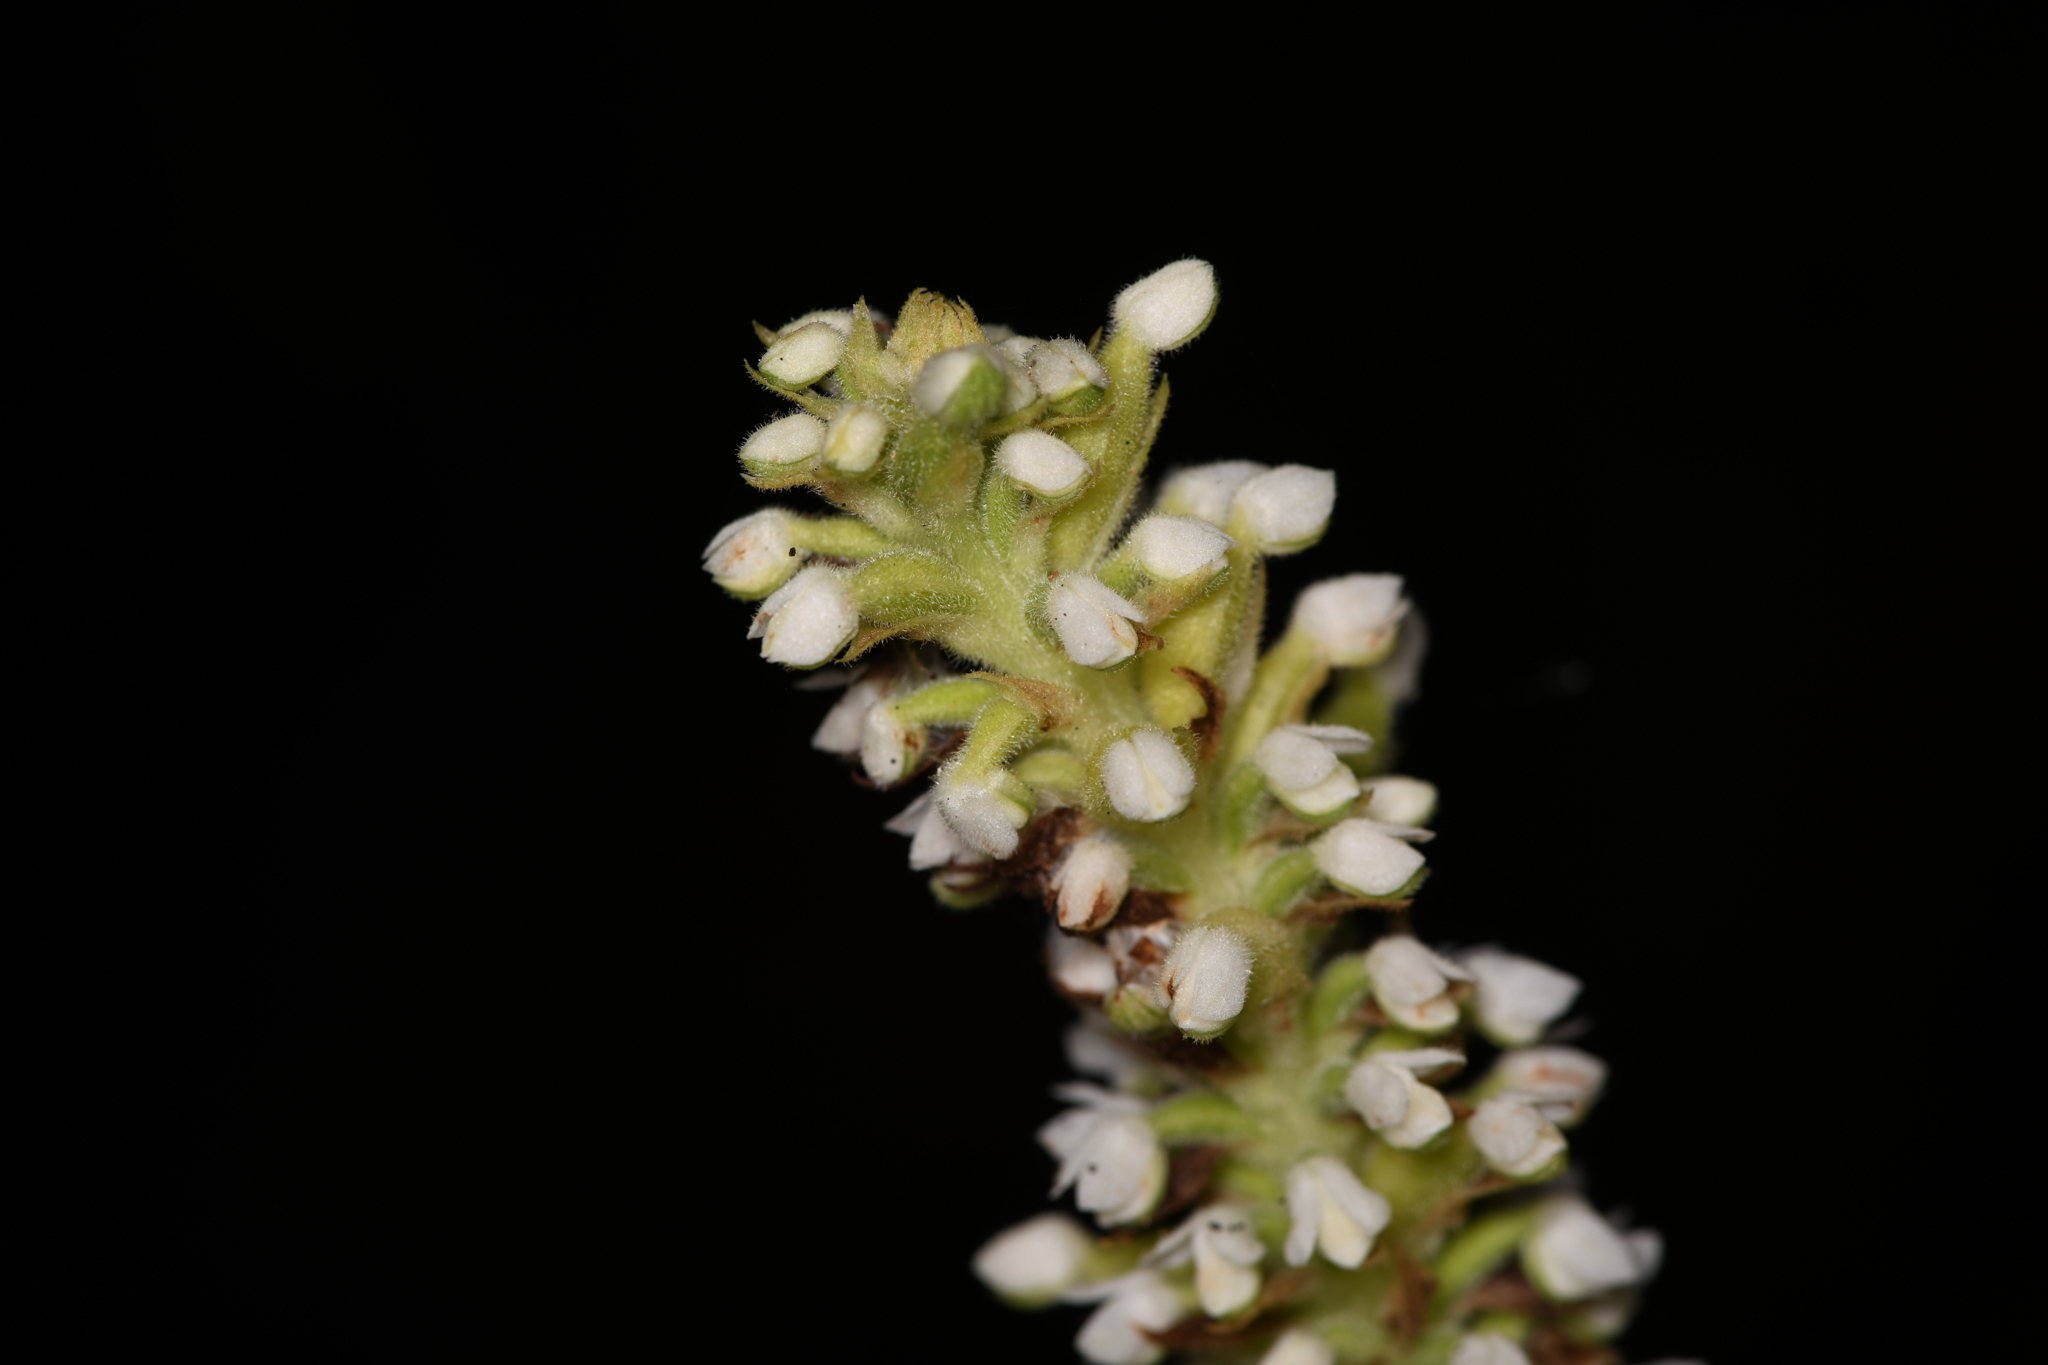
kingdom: Plantae
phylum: Tracheophyta
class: Liliopsida
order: Asparagales
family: Orchidaceae
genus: Gomphichis
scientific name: Gomphichis adnata
